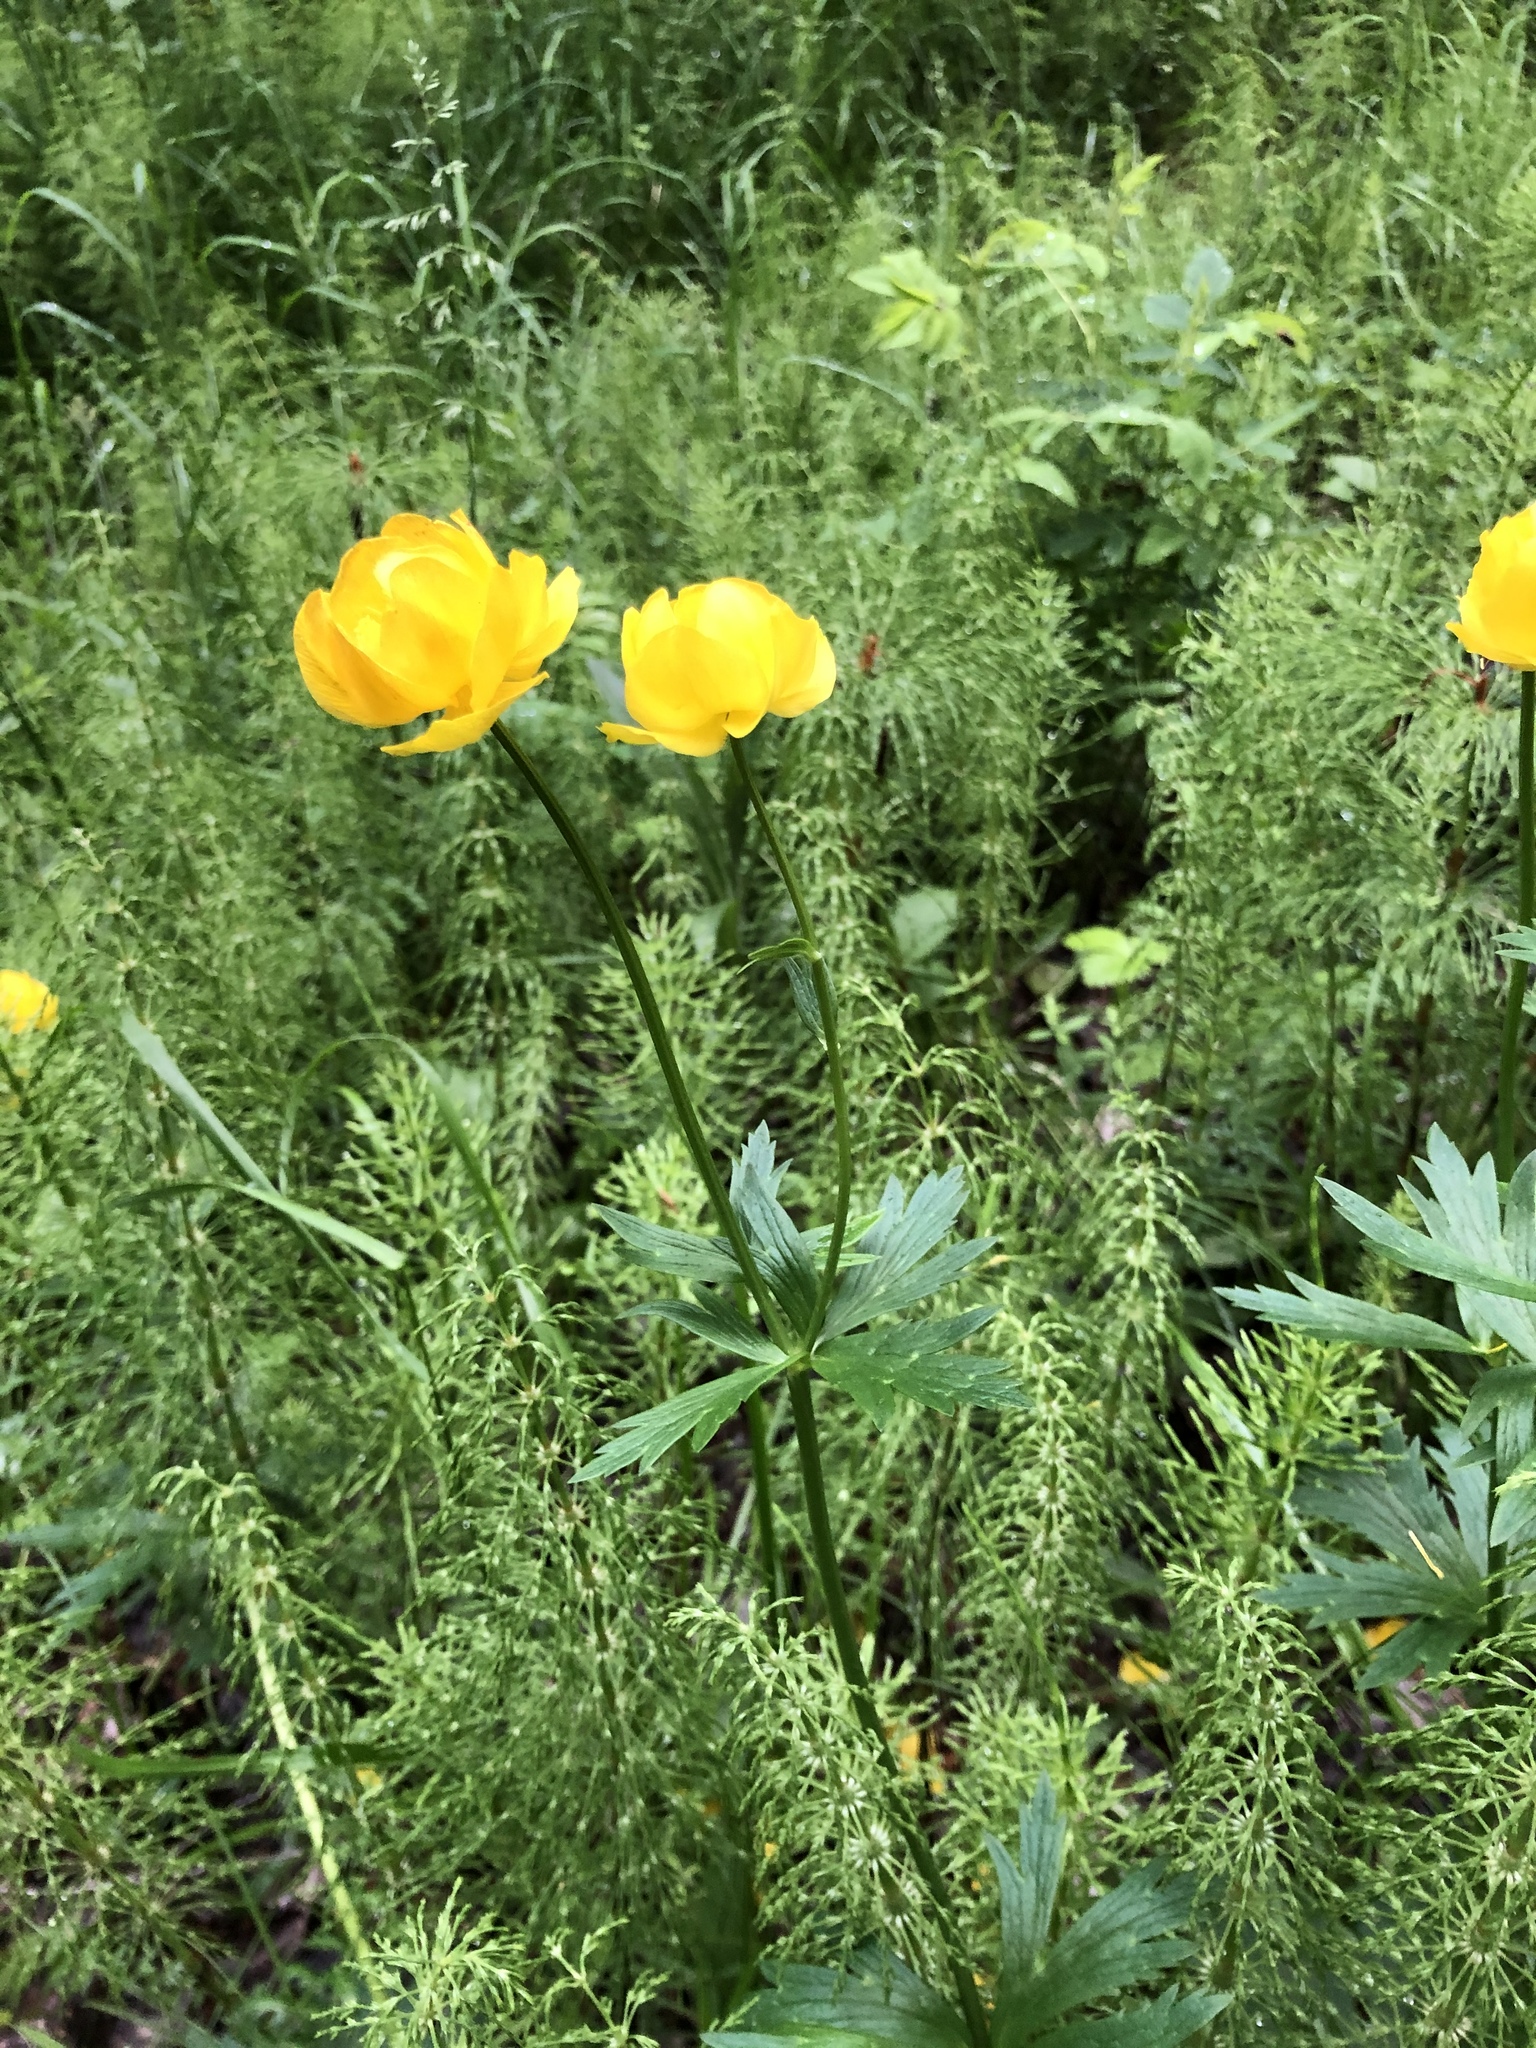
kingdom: Plantae
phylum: Tracheophyta
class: Magnoliopsida
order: Ranunculales
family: Ranunculaceae
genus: Trollius
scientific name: Trollius europaeus
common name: European globeflower
